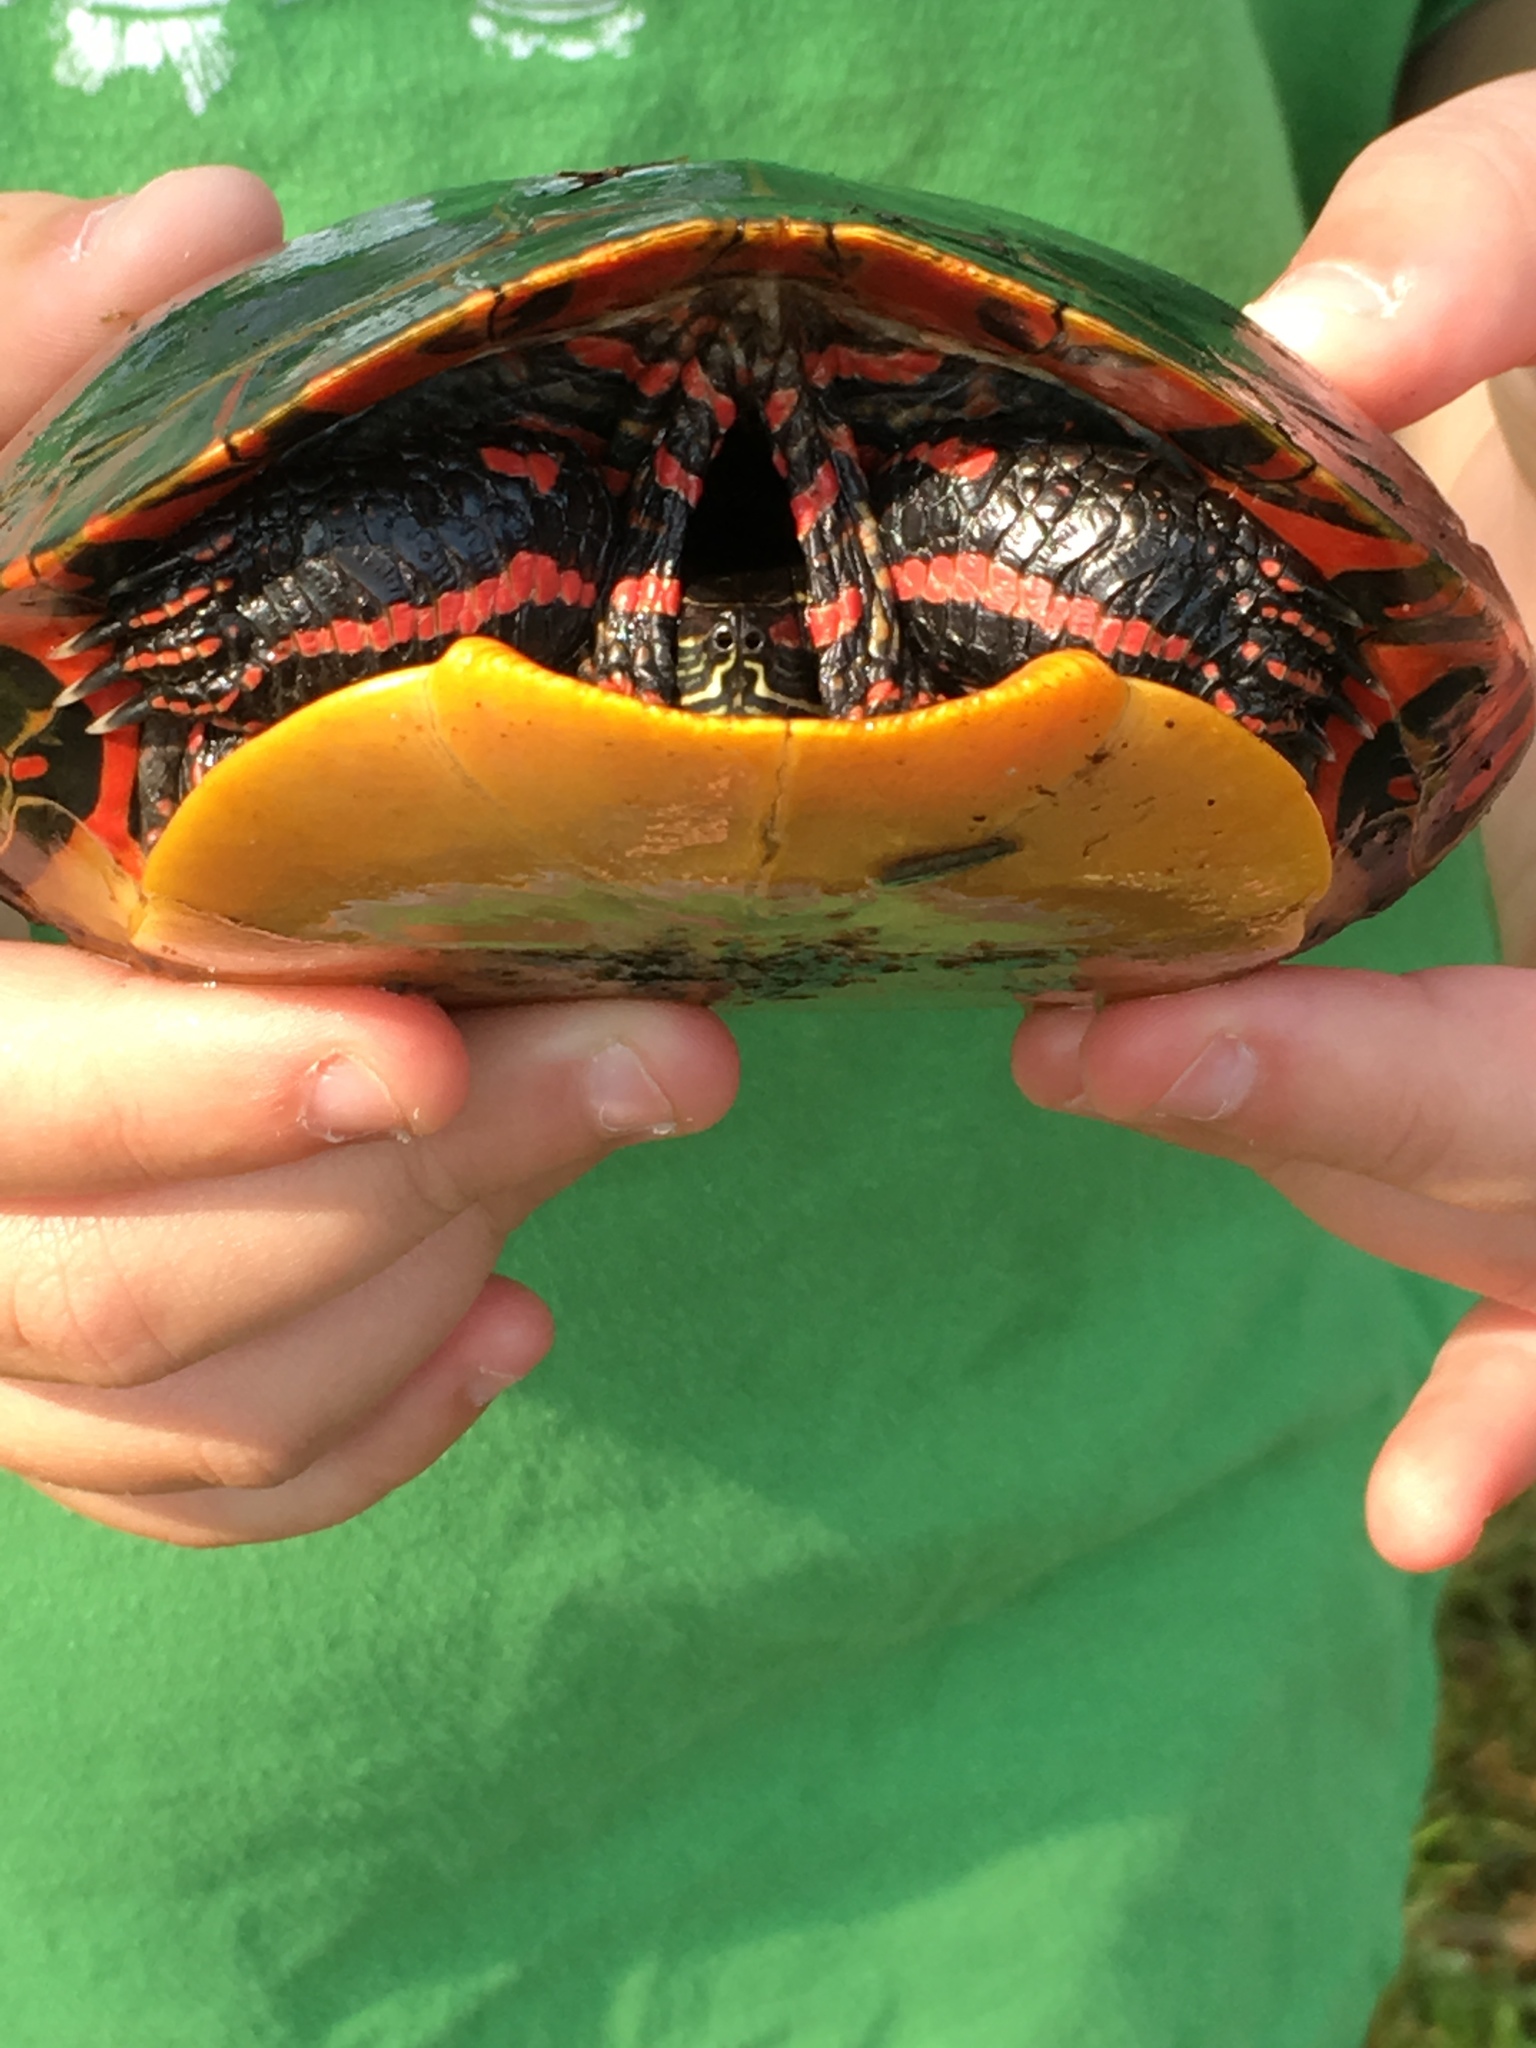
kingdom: Animalia
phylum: Chordata
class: Testudines
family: Emydidae
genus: Chrysemys
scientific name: Chrysemys picta
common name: Painted turtle
